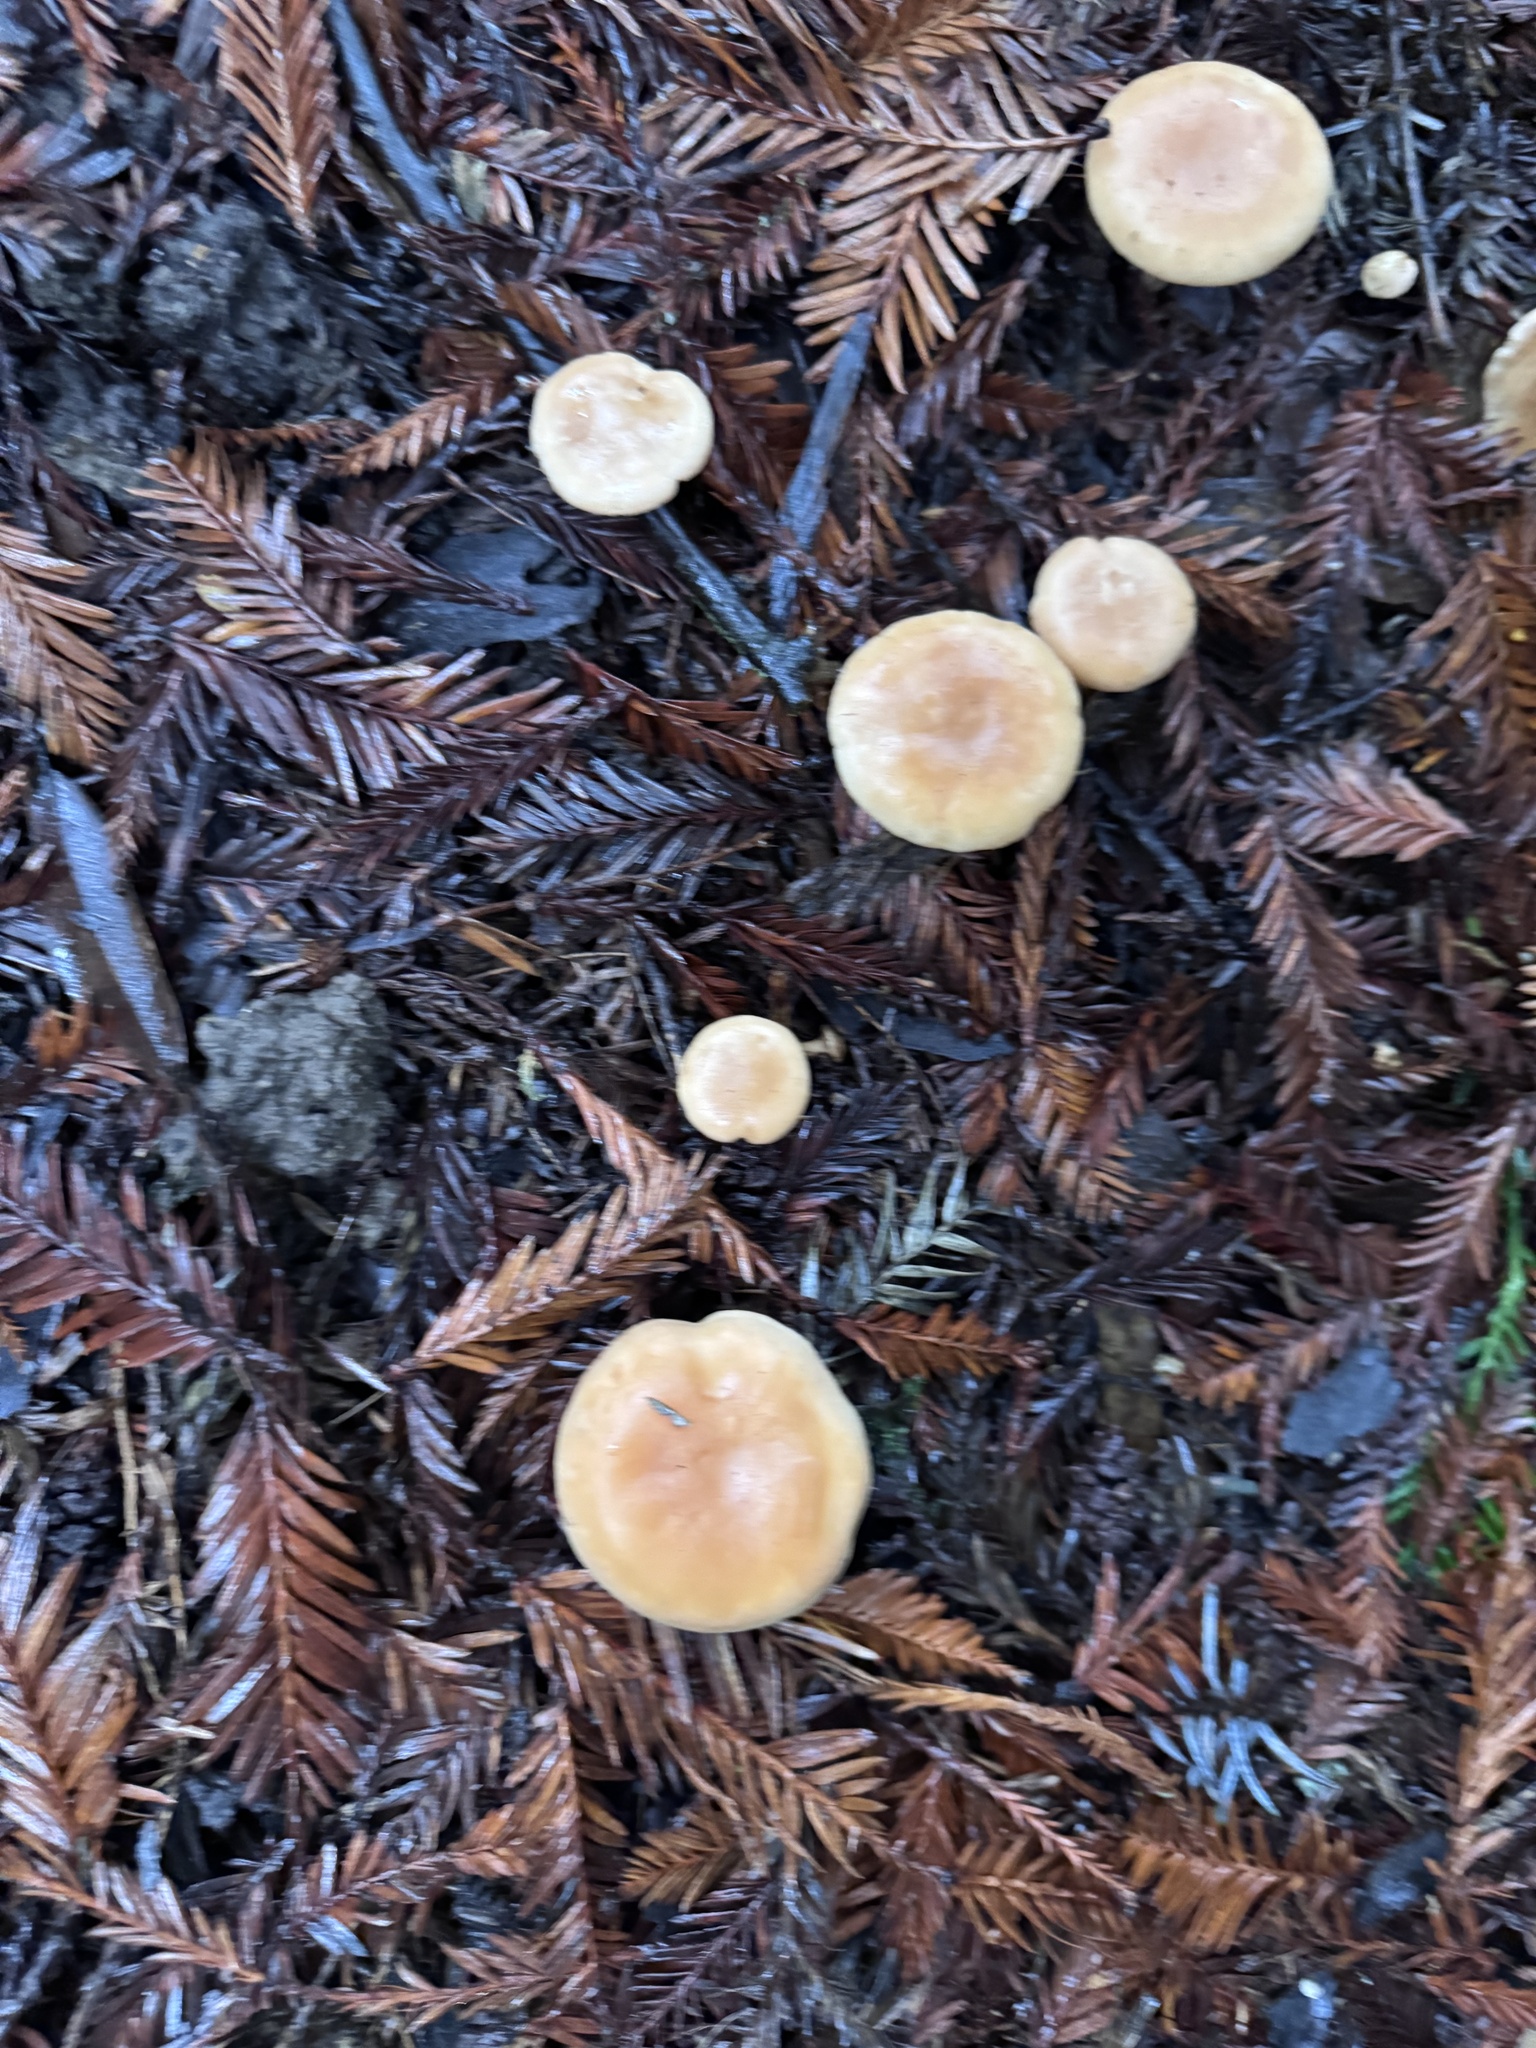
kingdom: Fungi
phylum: Basidiomycota
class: Agaricomycetes
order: Agaricales
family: Tricholomataceae
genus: Paralepista
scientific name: Paralepista flaccida
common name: Tawny funnel cap
